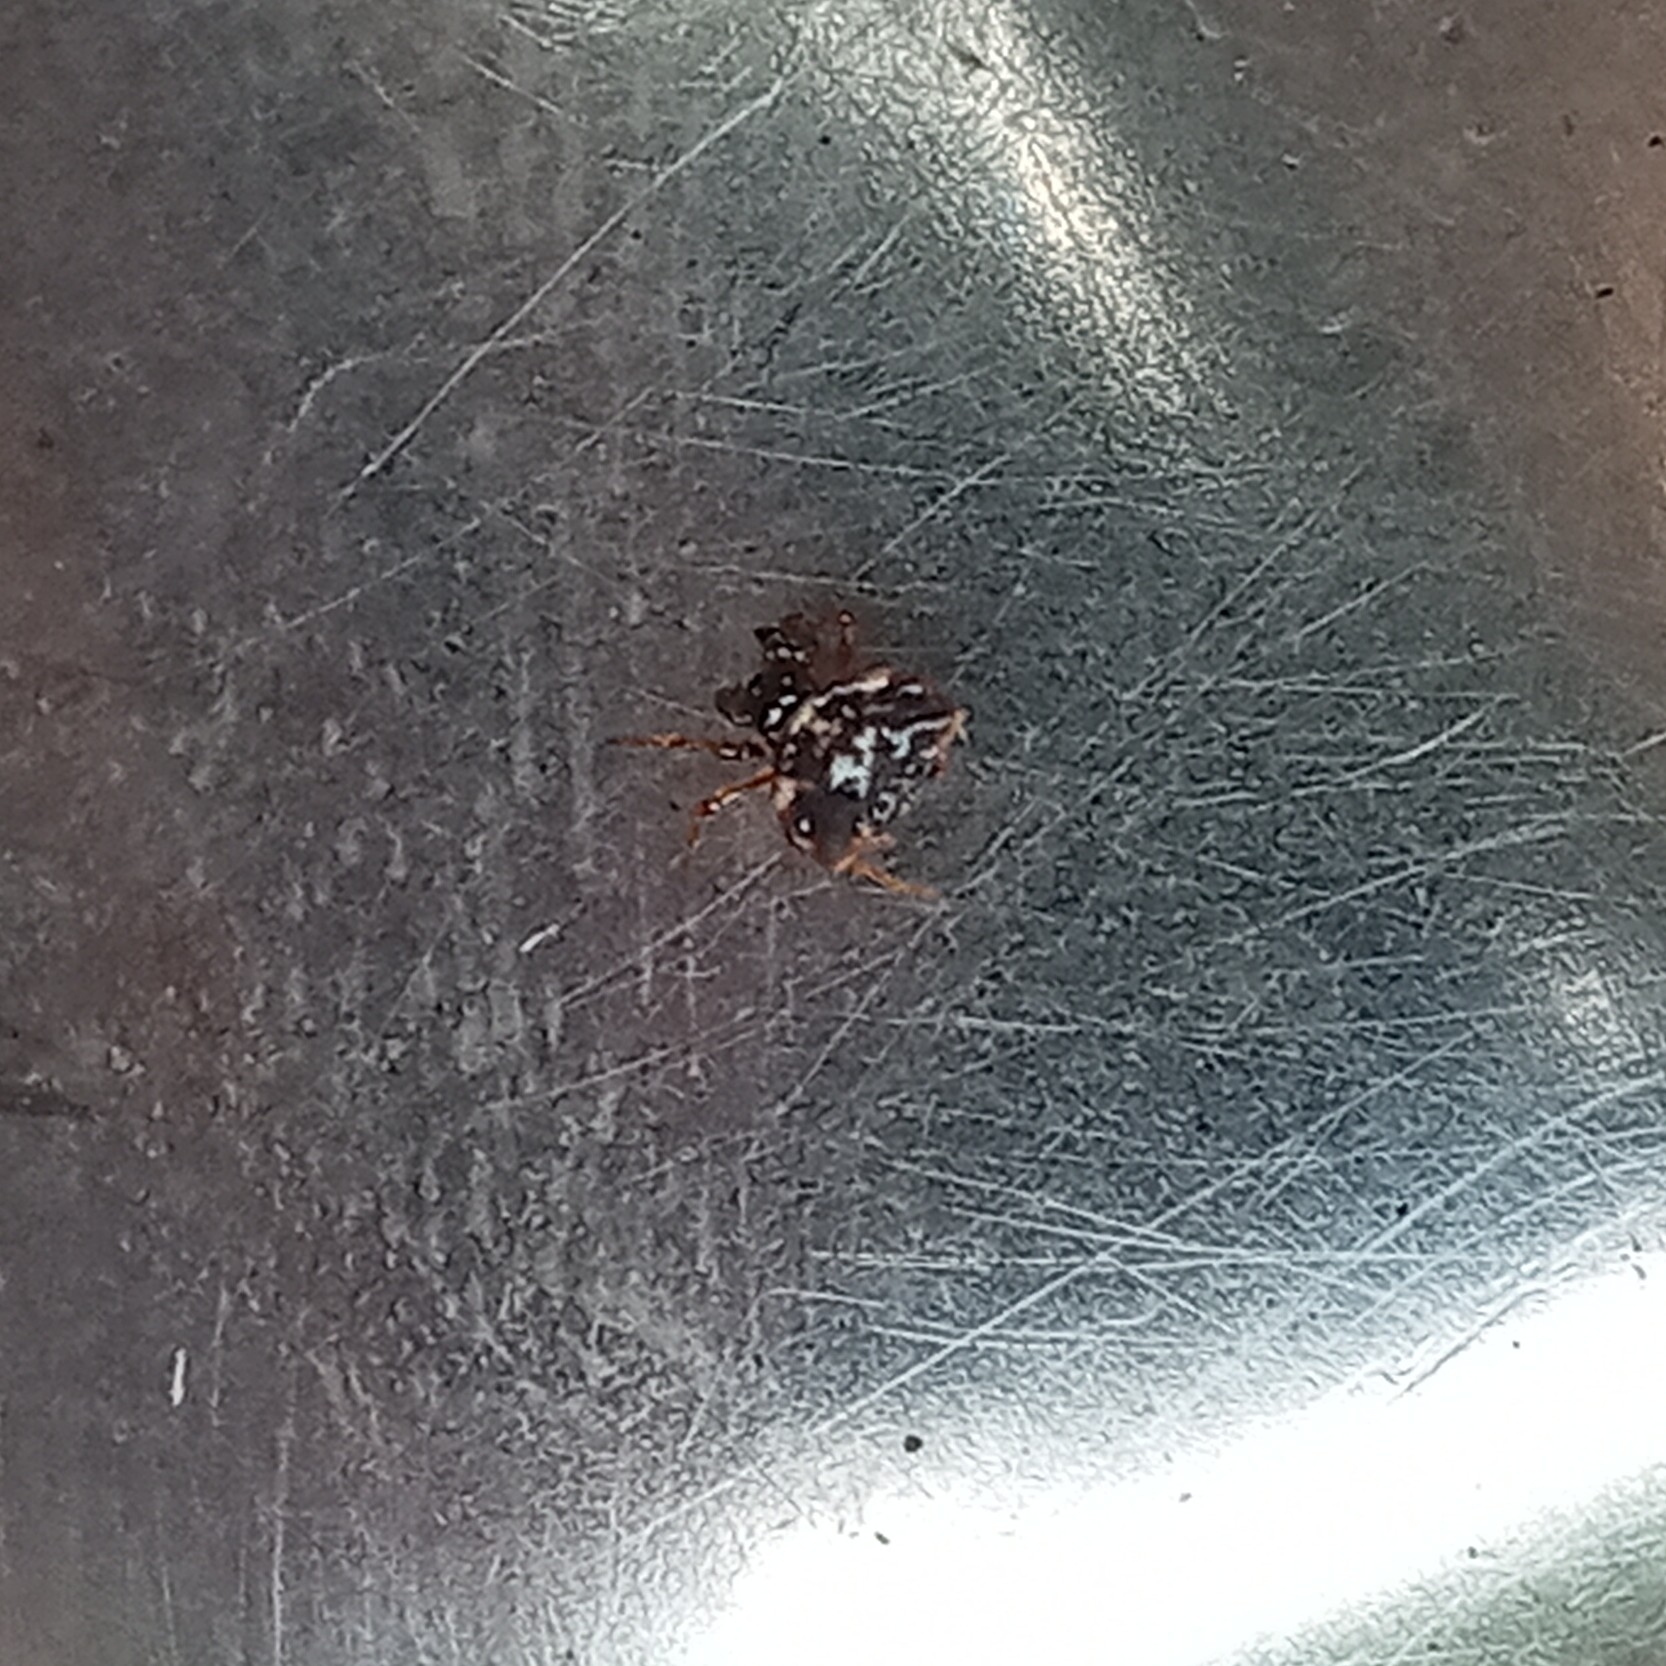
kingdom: Animalia
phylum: Arthropoda
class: Arachnida
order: Araneae
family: Araneidae
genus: Gasteracantha
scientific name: Gasteracantha cancriformis
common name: Orb weavers
